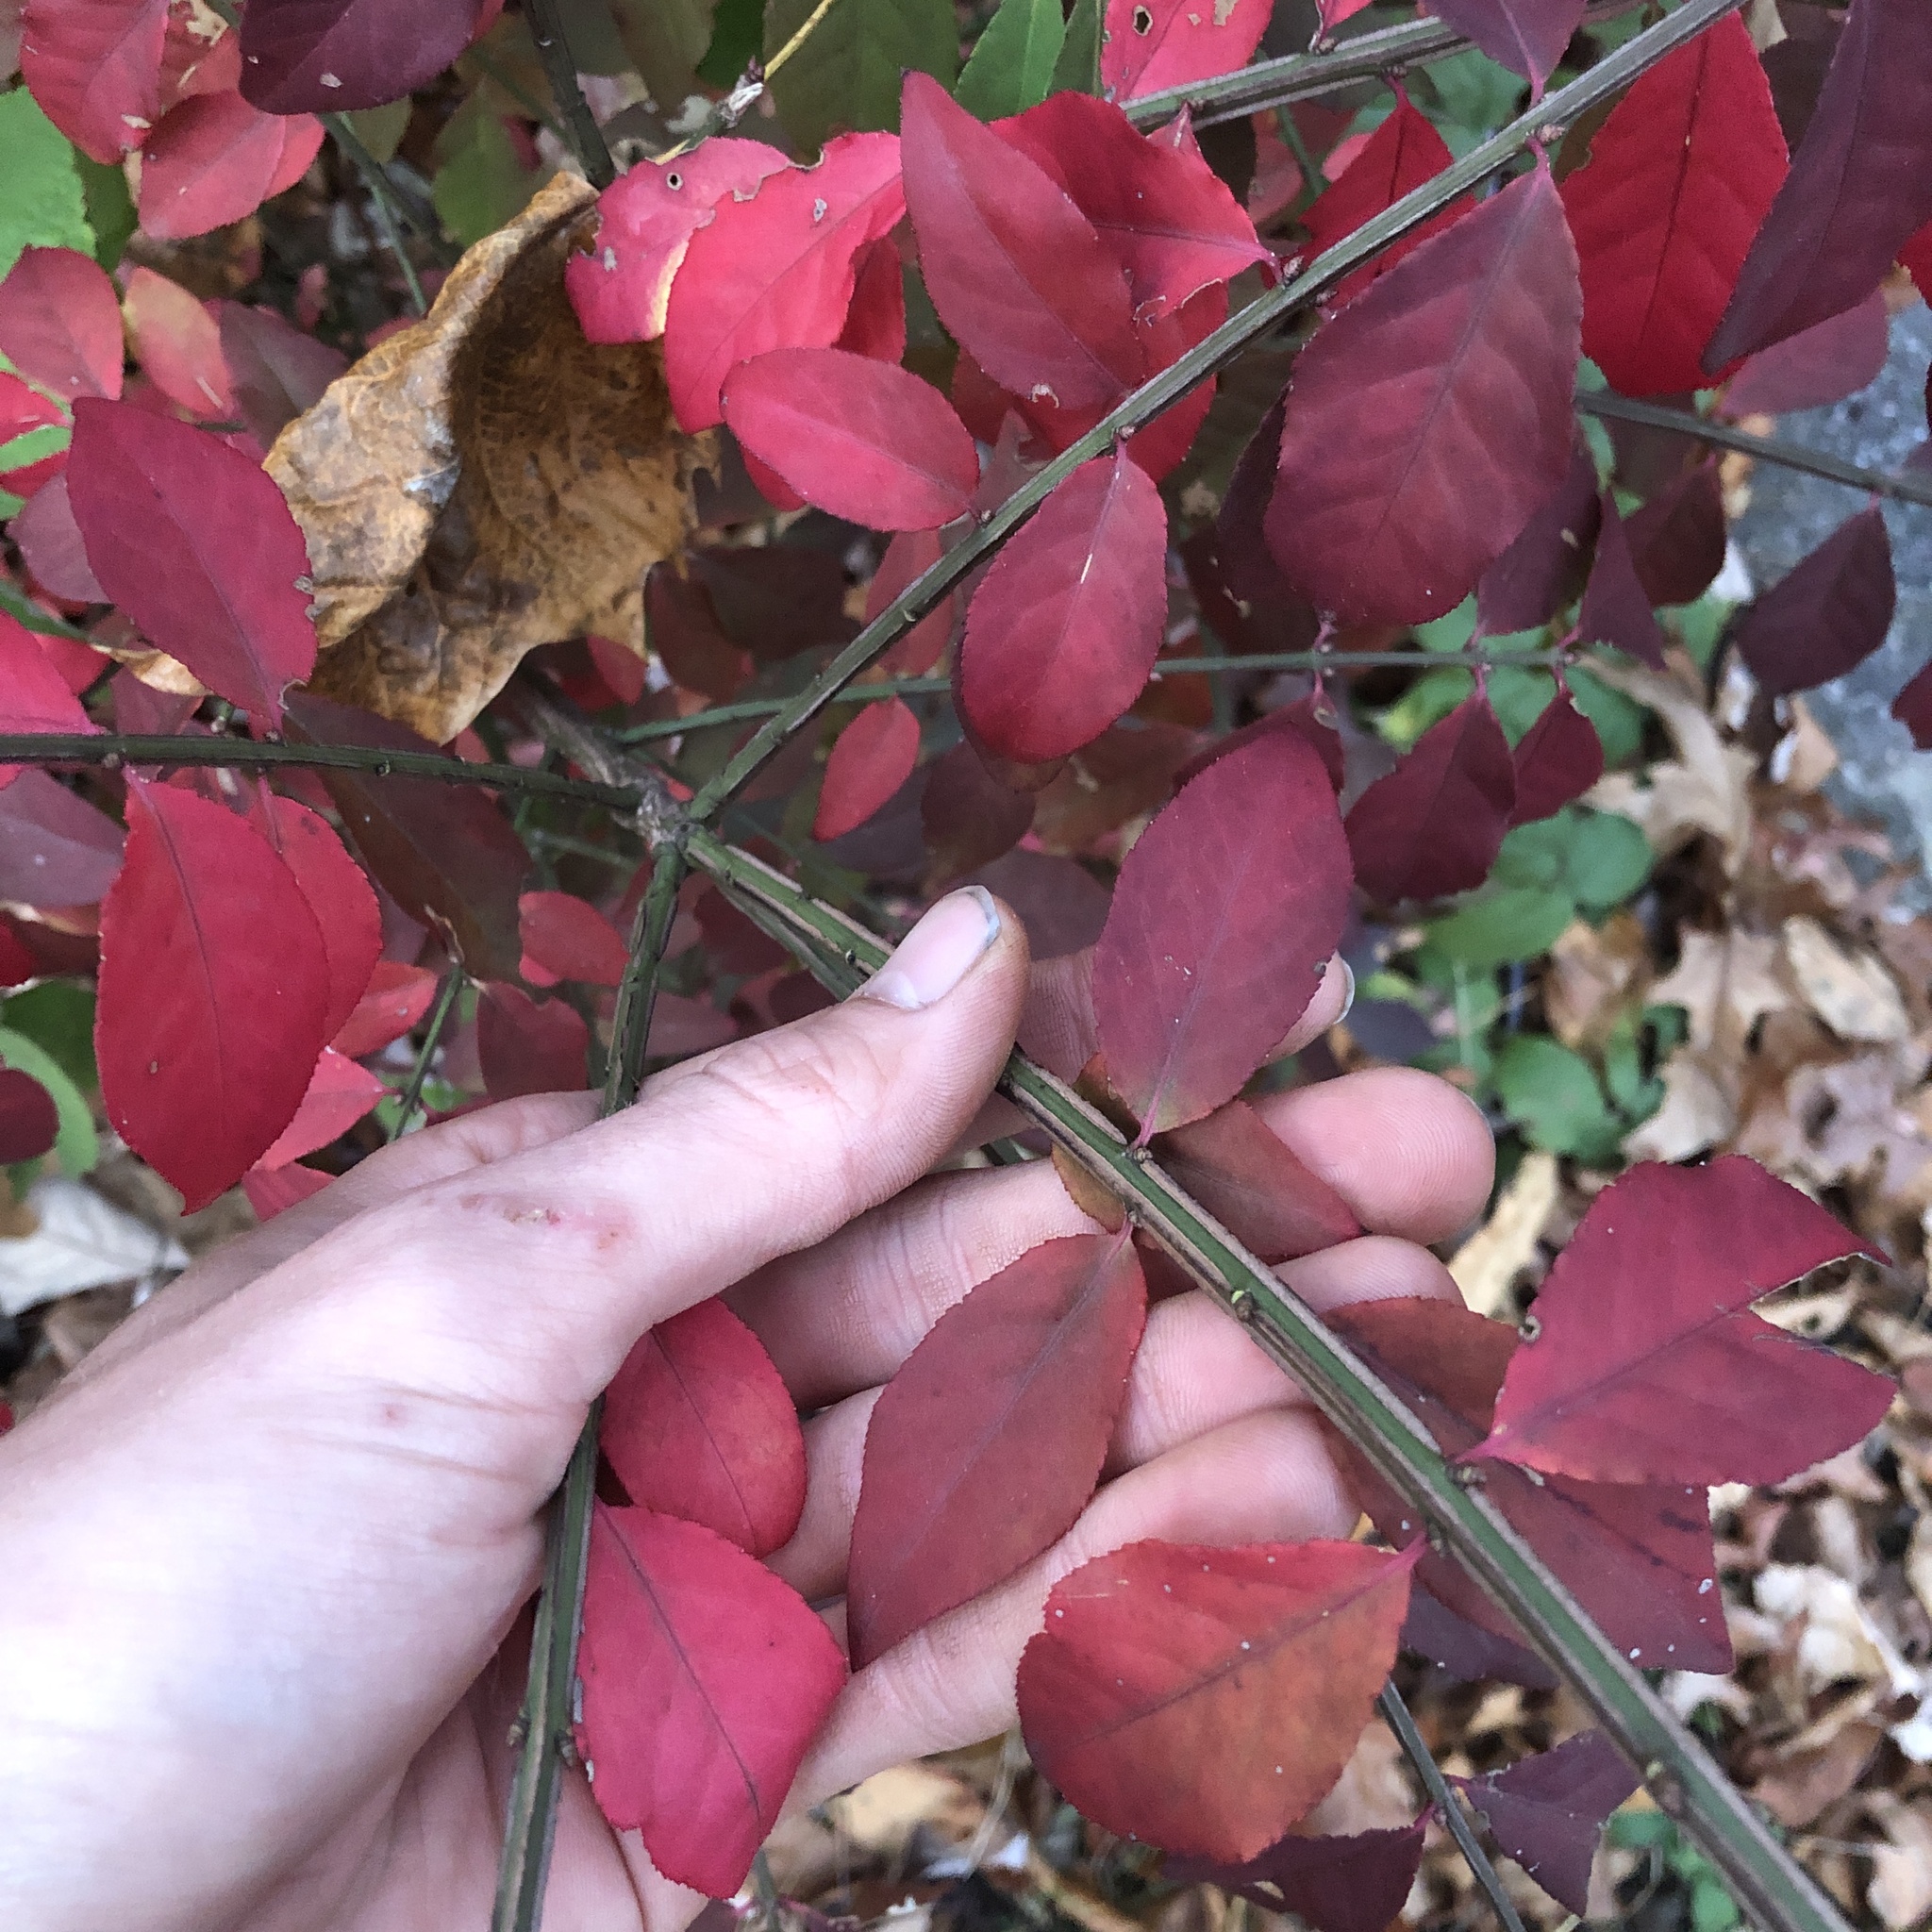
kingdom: Plantae
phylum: Tracheophyta
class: Magnoliopsida
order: Celastrales
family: Celastraceae
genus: Euonymus
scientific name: Euonymus alatus
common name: Winged euonymus
